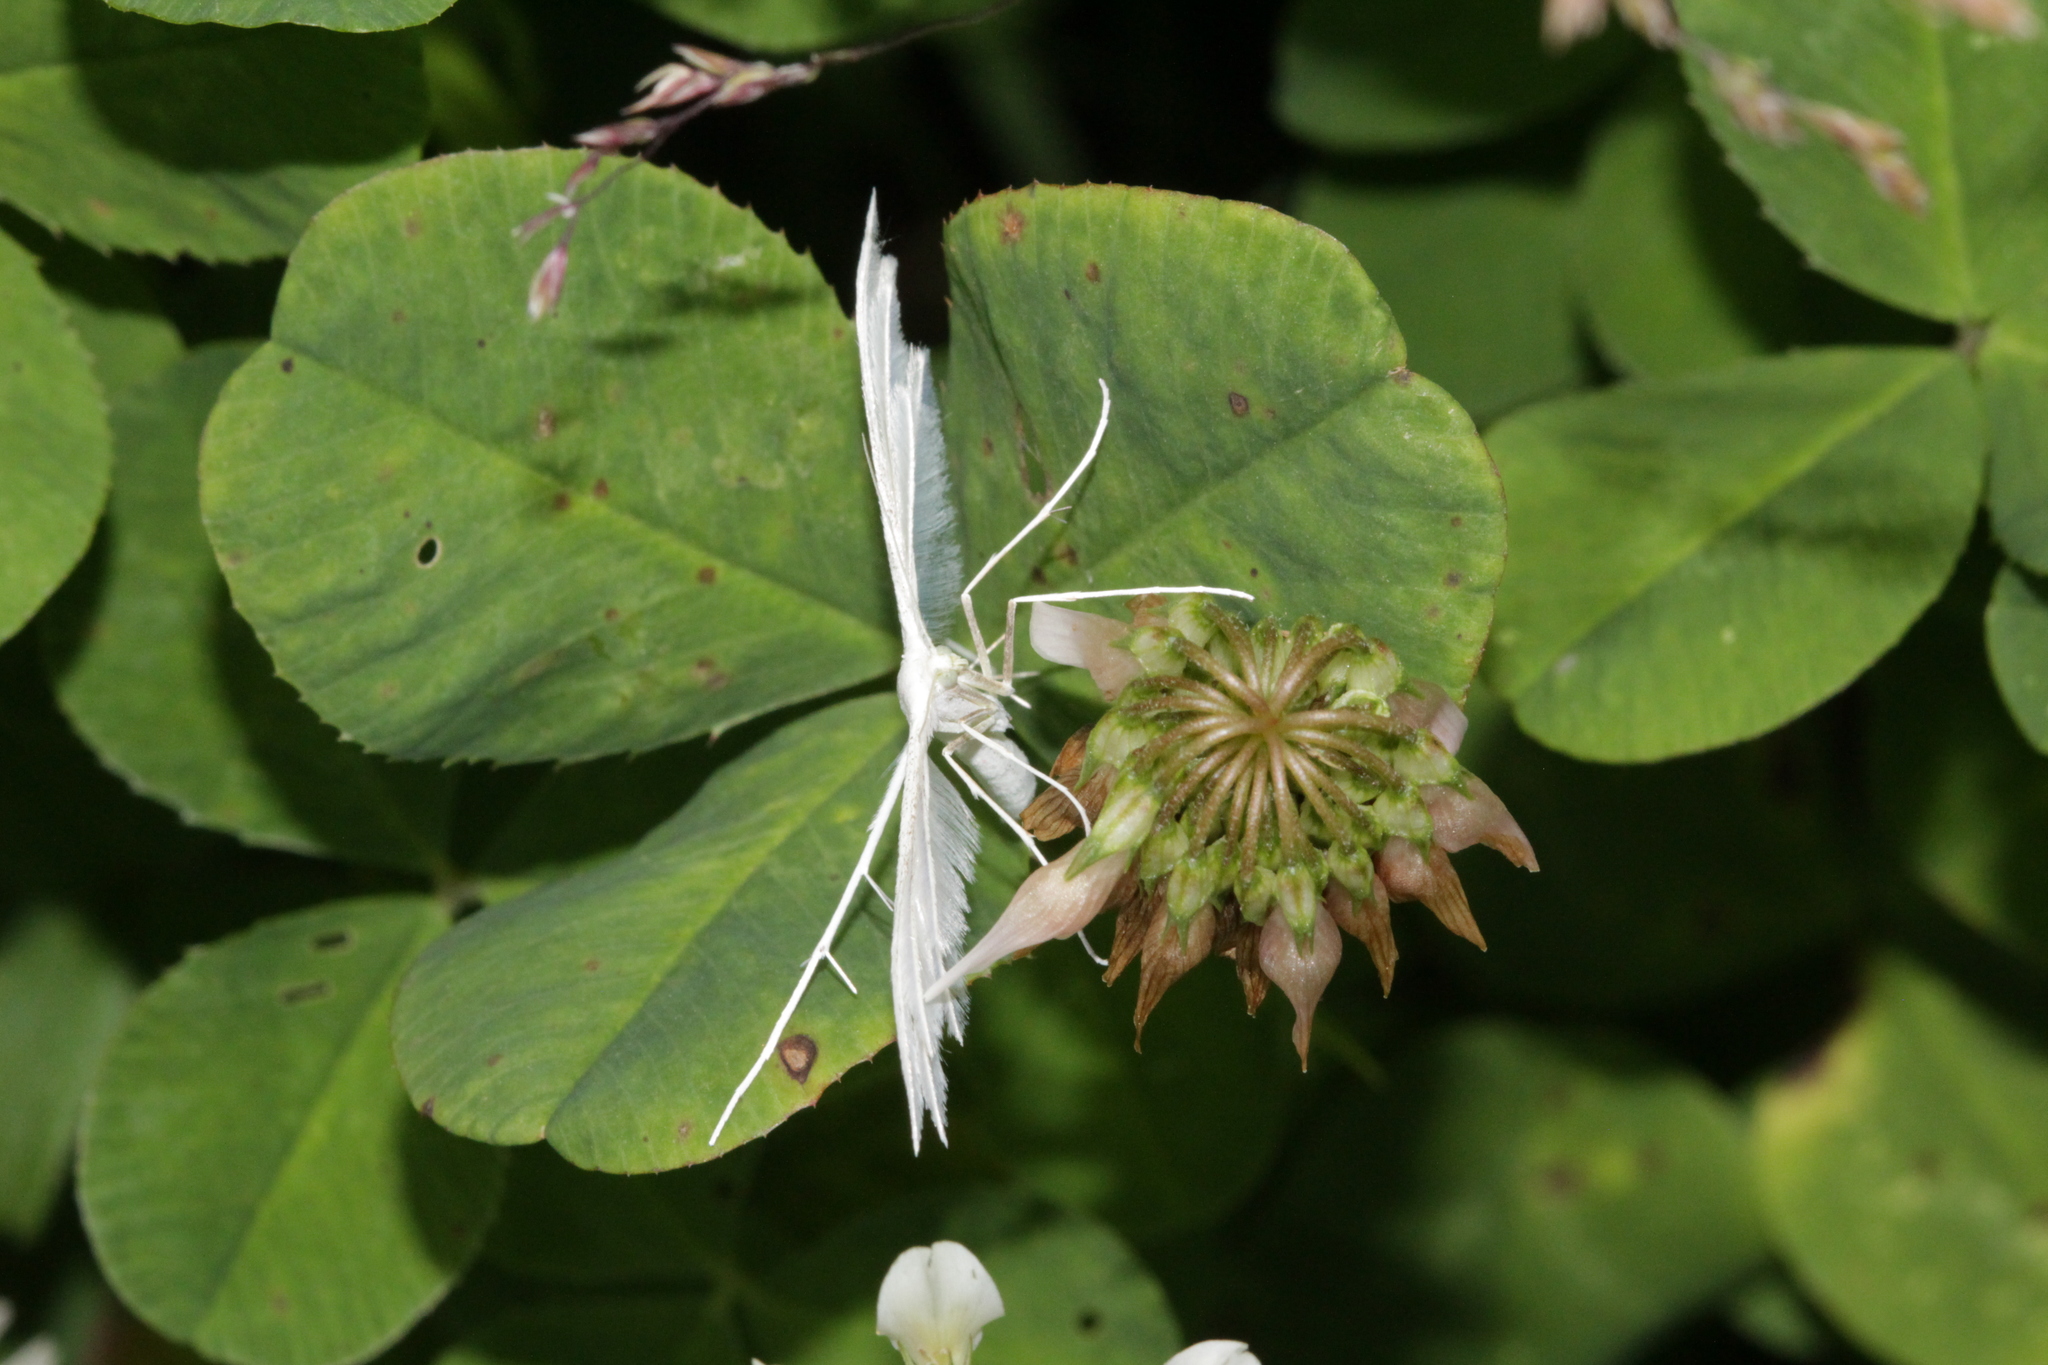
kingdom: Animalia
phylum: Arthropoda
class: Insecta
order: Lepidoptera
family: Pterophoridae
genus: Pterophorus
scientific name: Pterophorus pentadactyla
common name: White plume moth
